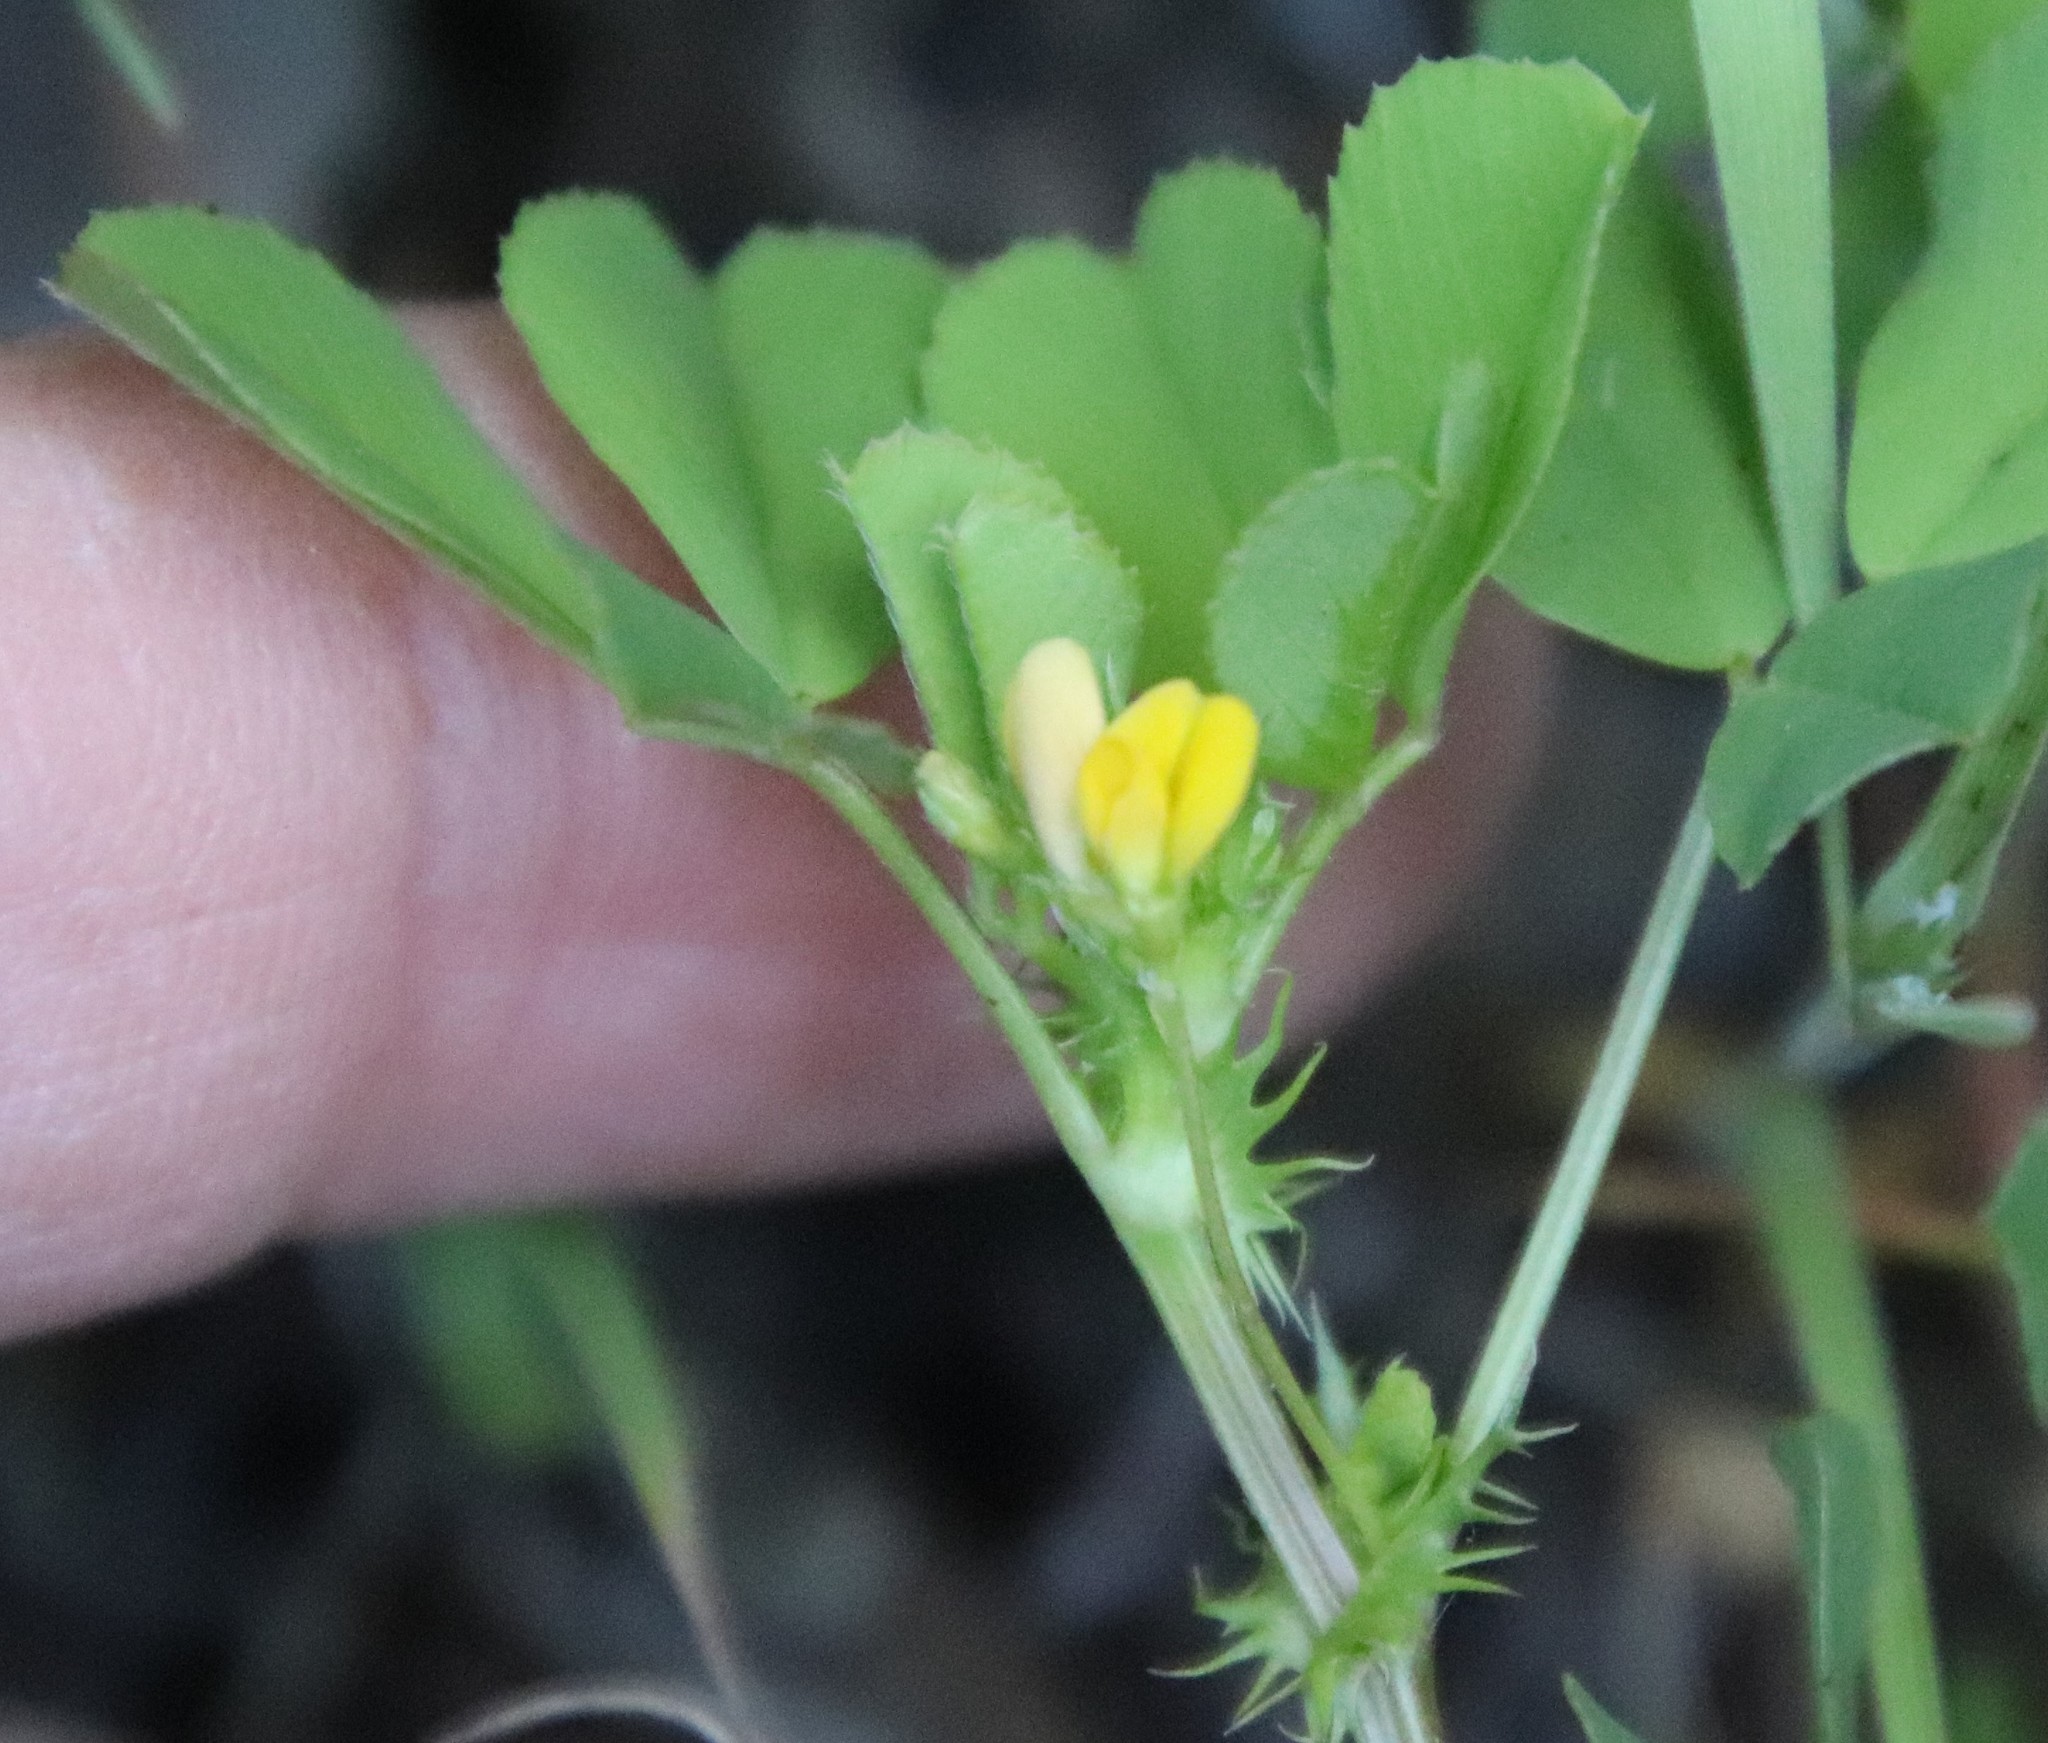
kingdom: Plantae
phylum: Tracheophyta
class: Magnoliopsida
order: Fabales
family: Fabaceae
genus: Medicago
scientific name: Medicago polymorpha
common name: Burclover
